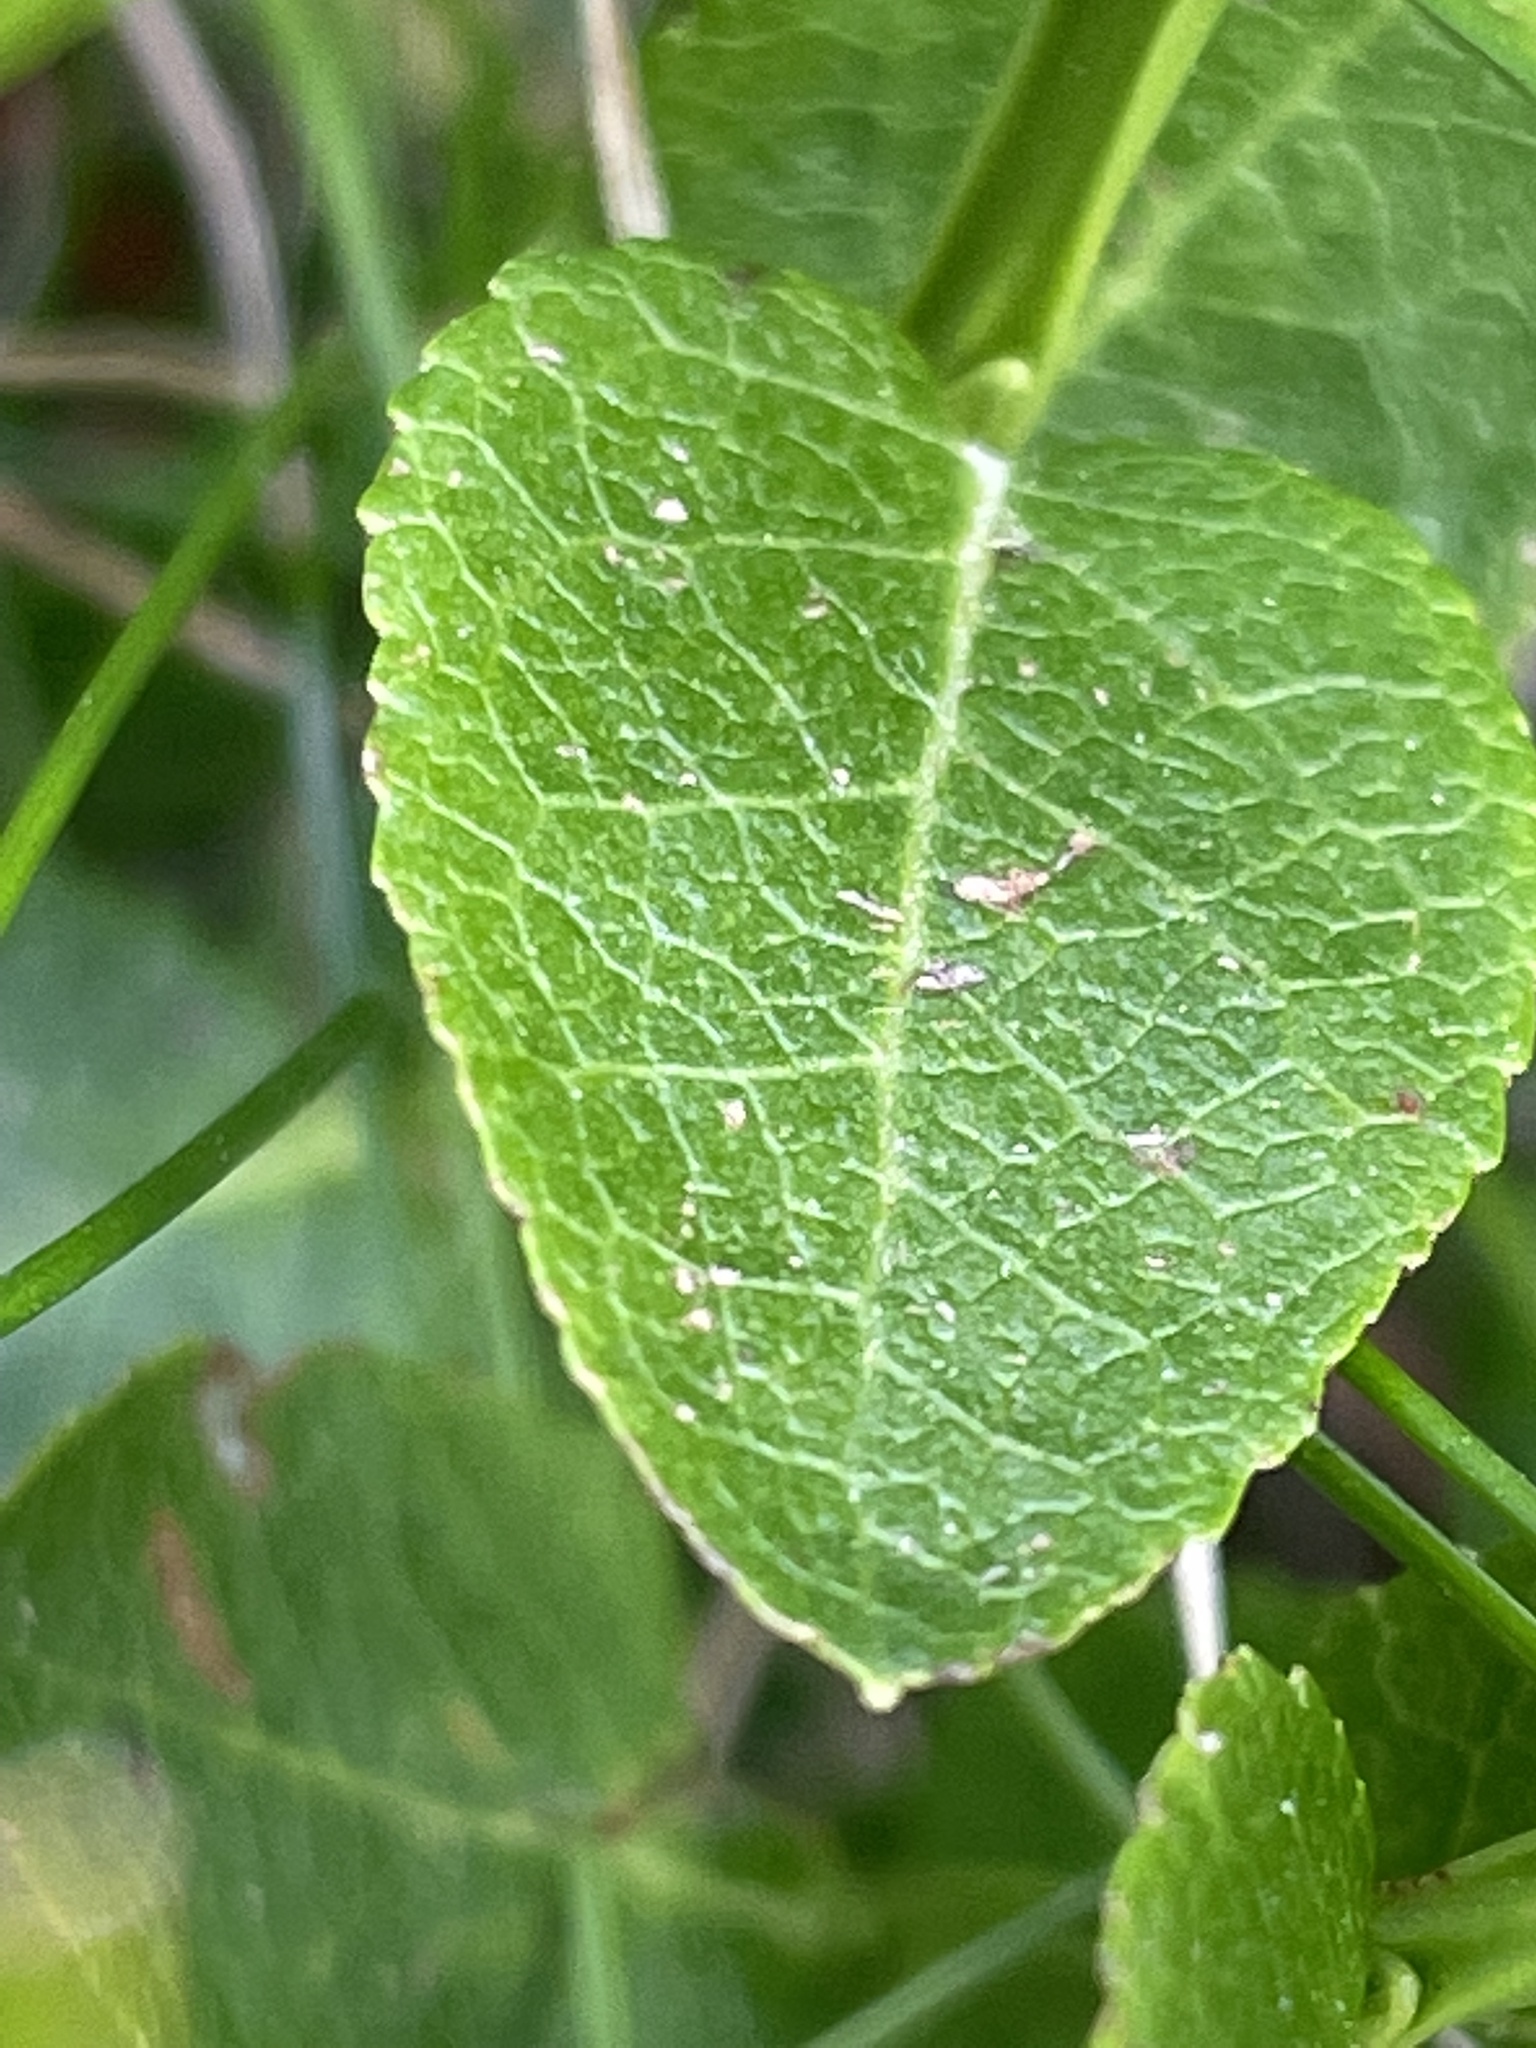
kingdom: Plantae
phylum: Tracheophyta
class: Magnoliopsida
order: Ericales
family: Ericaceae
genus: Vaccinium
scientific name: Vaccinium myrtillus
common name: Bilberry
